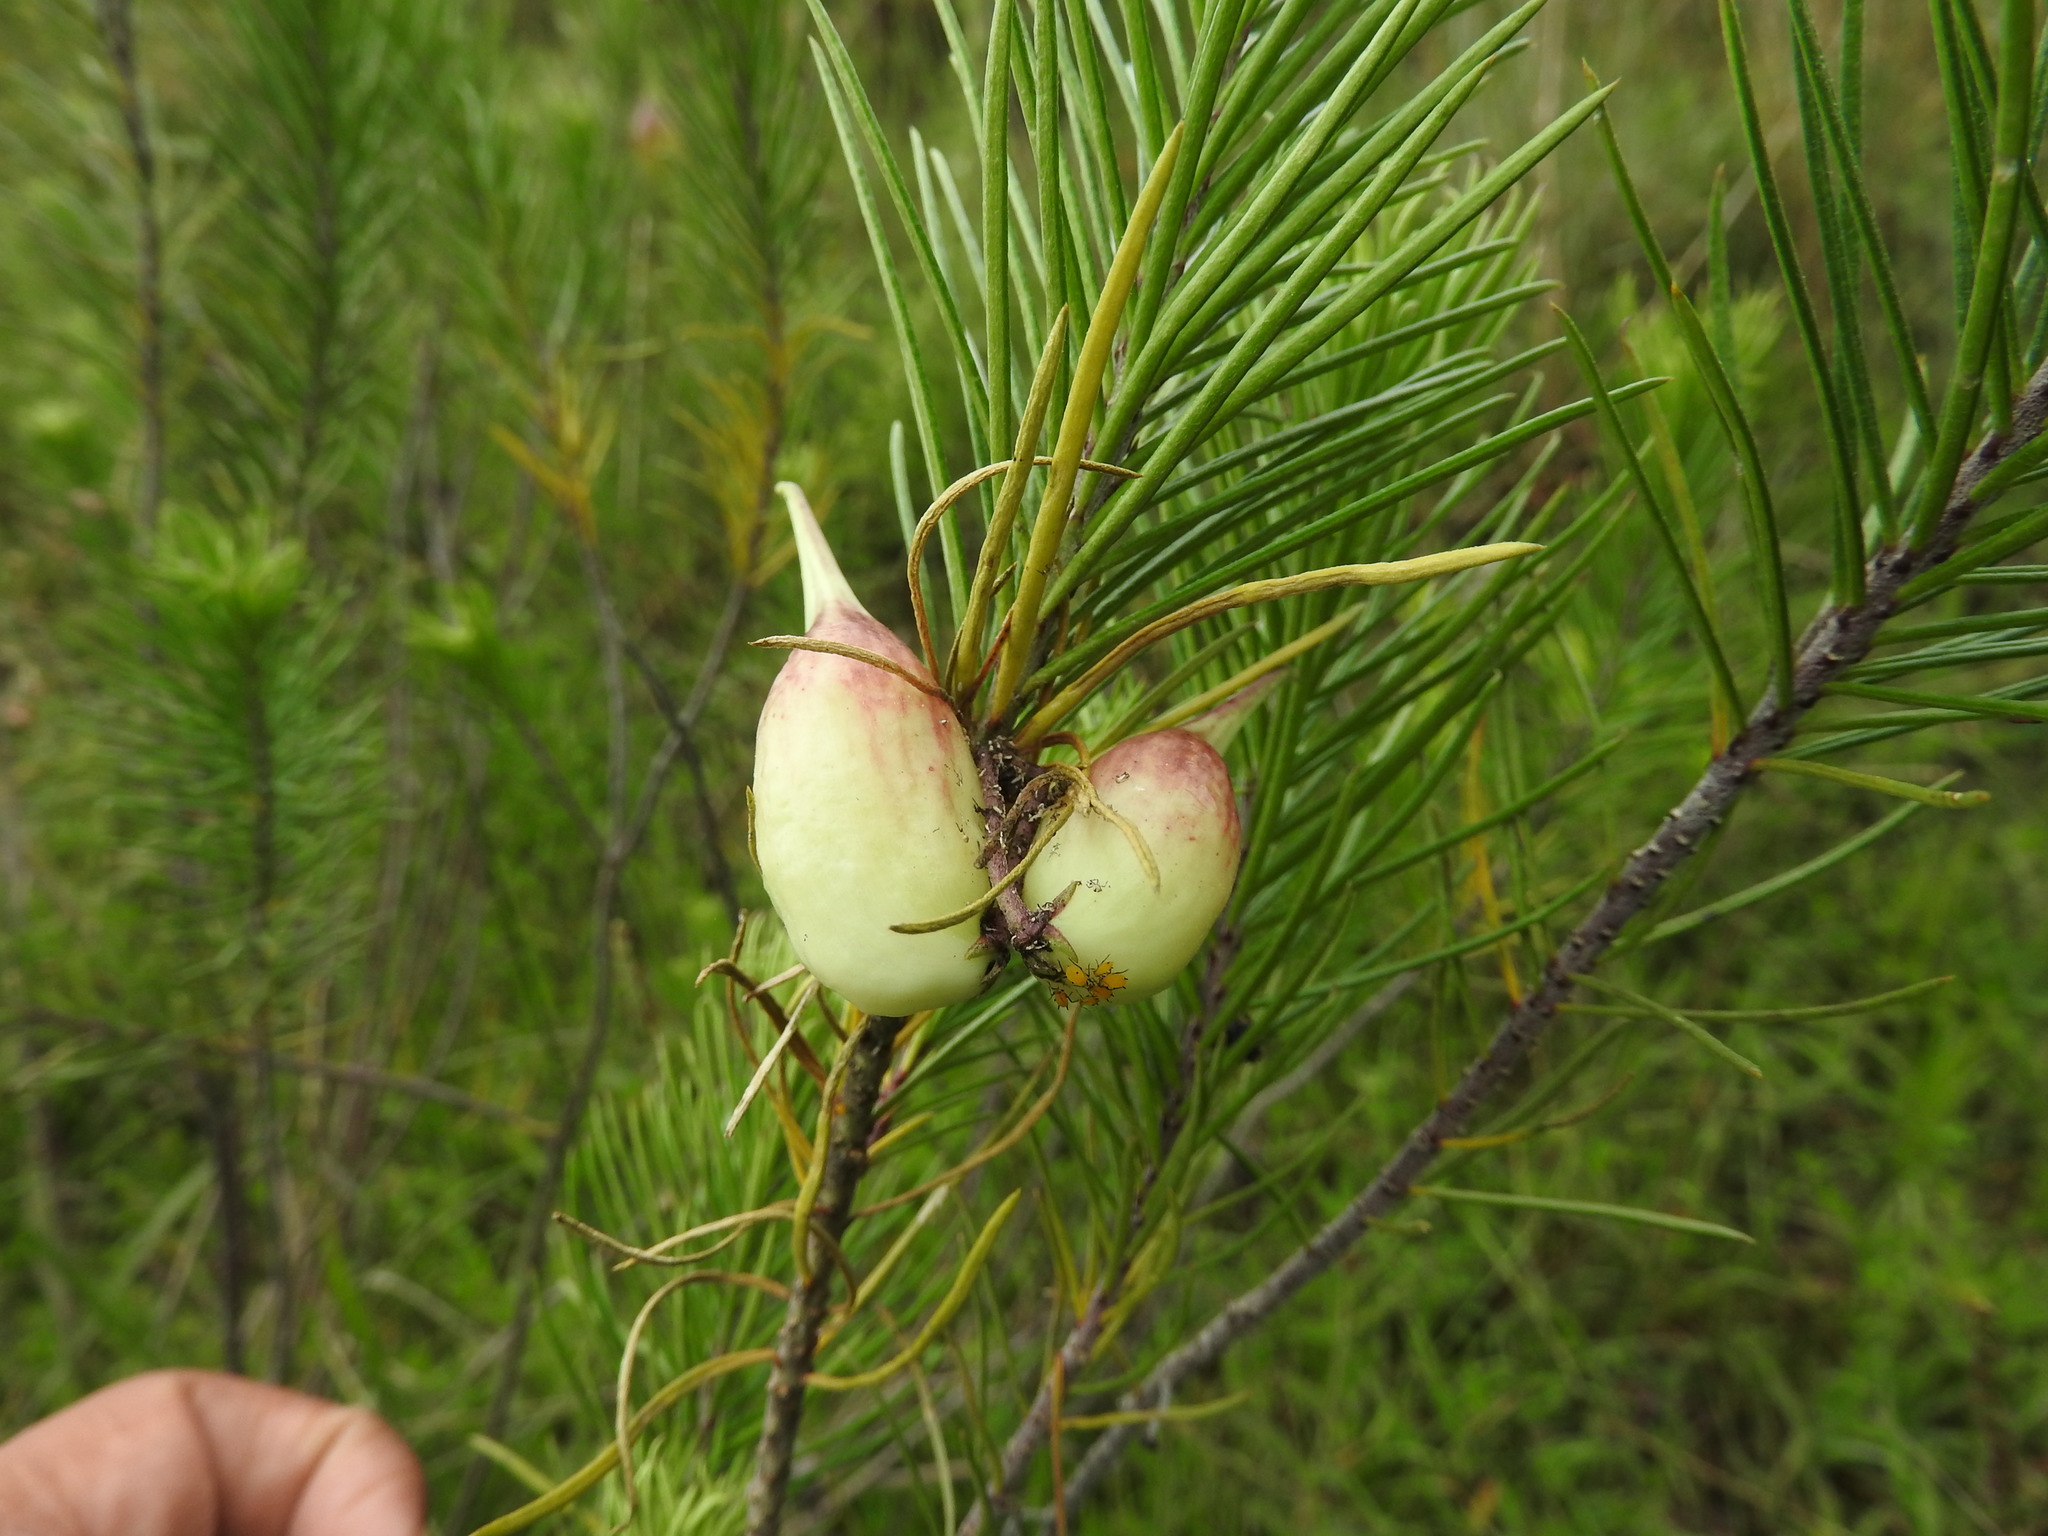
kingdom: Plantae
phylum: Tracheophyta
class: Magnoliopsida
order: Gentianales
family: Apocynaceae
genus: Asclepias
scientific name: Asclepias linaria
